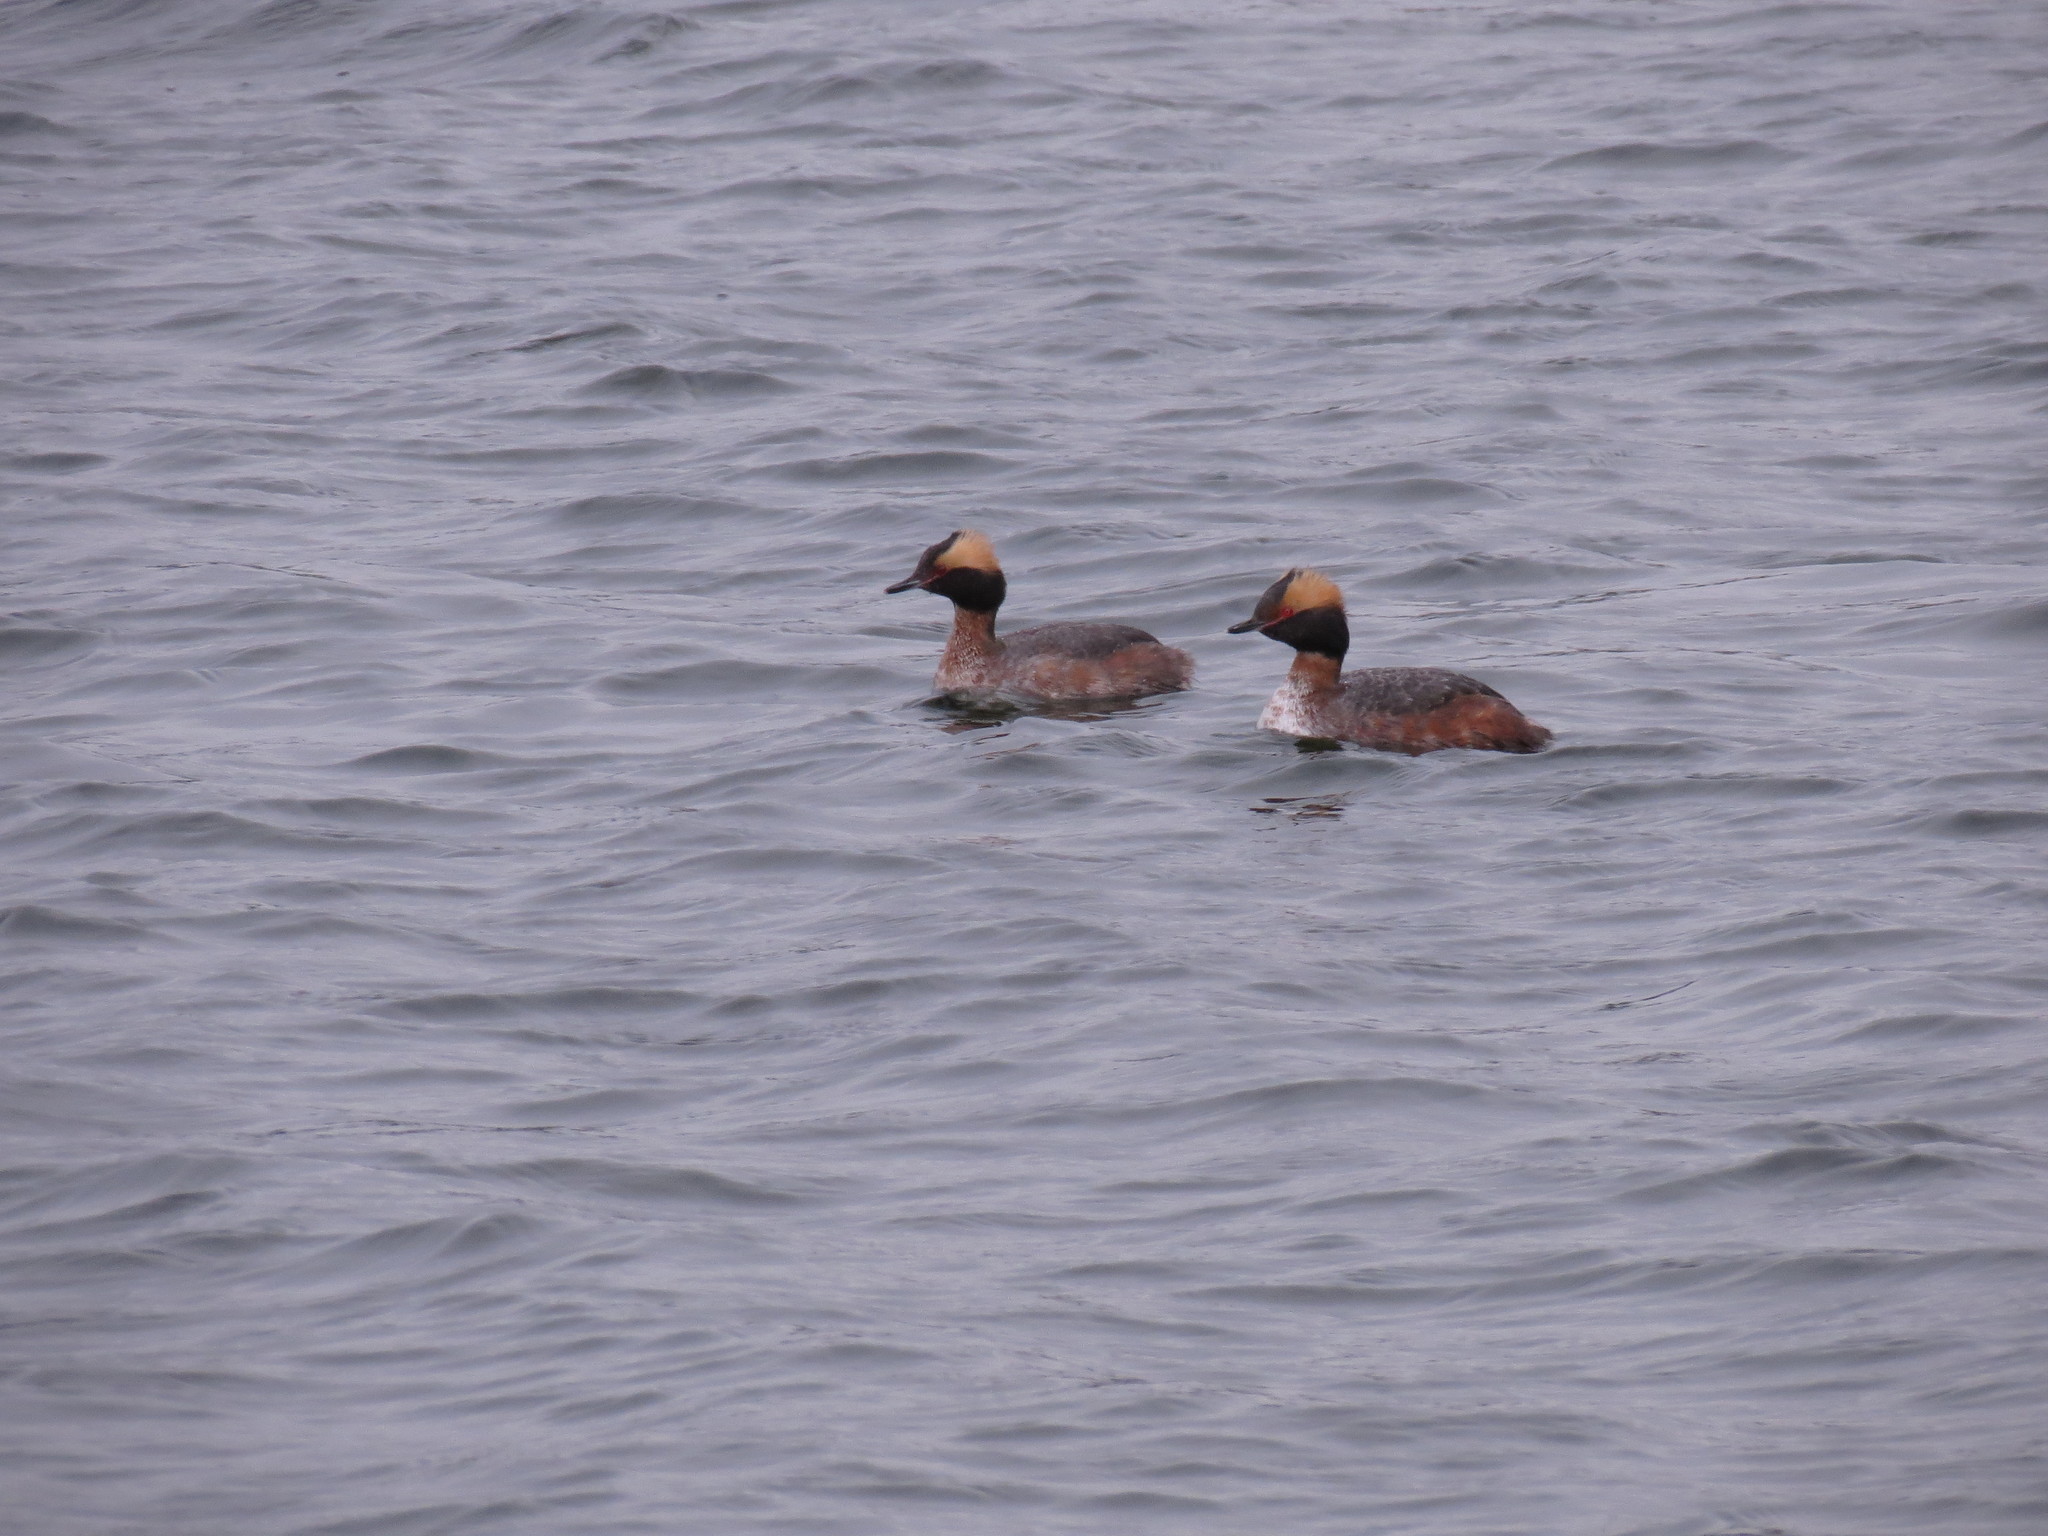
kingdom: Animalia
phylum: Chordata
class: Aves
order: Podicipediformes
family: Podicipedidae
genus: Podiceps
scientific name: Podiceps auritus
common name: Horned grebe
